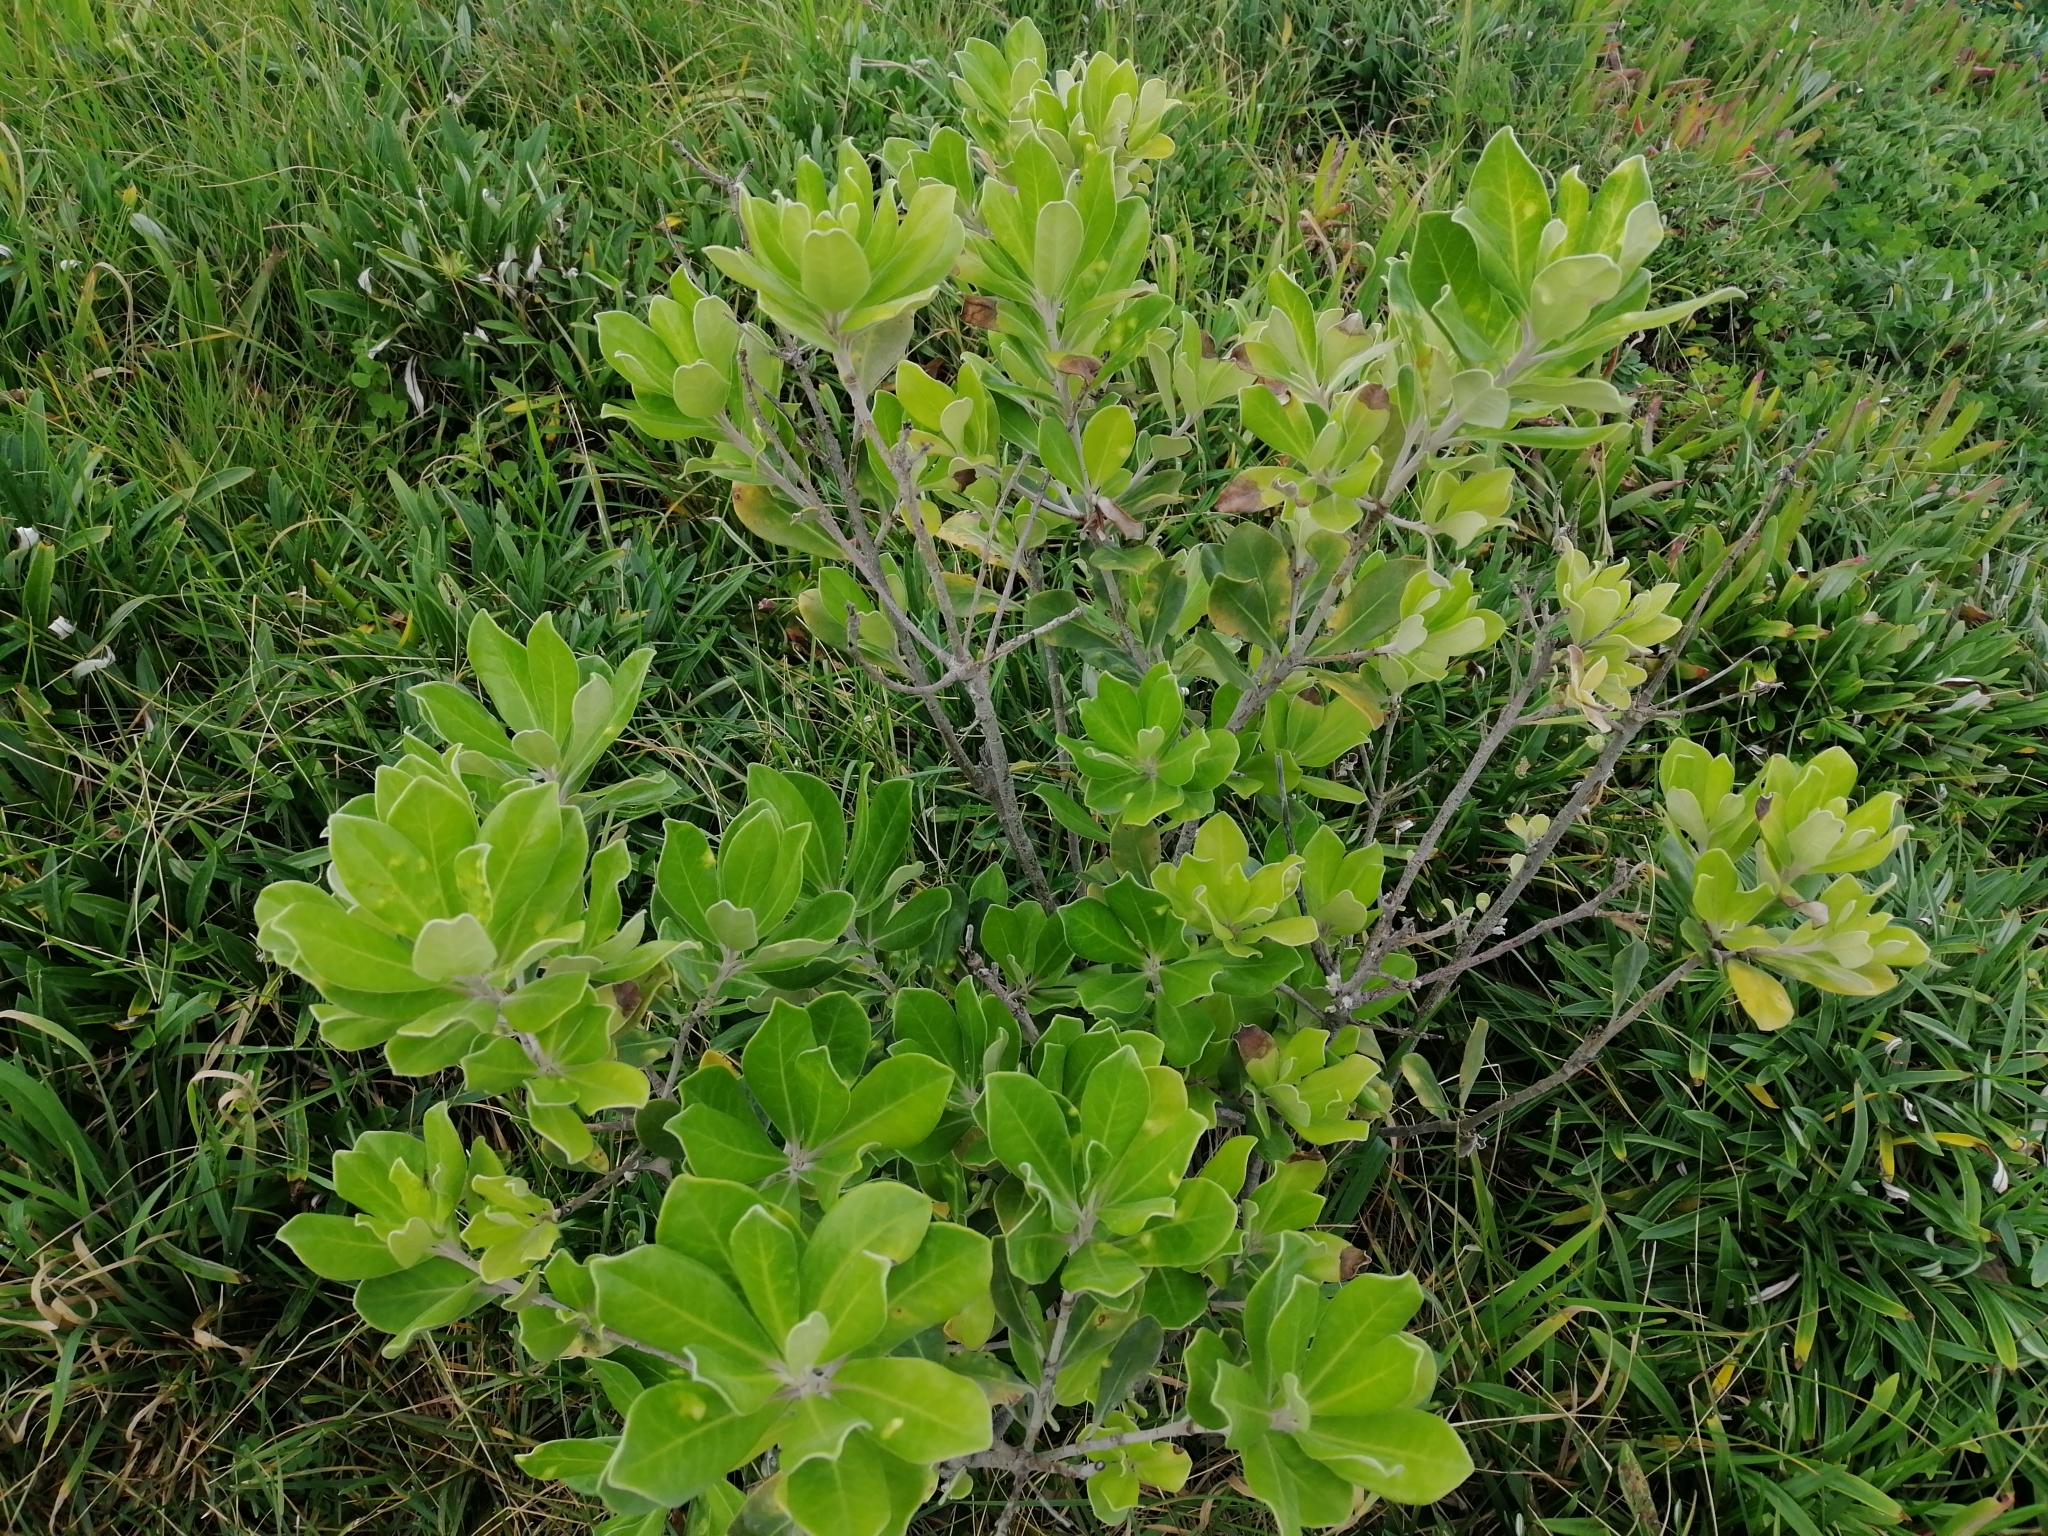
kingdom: Plantae
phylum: Tracheophyta
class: Magnoliopsida
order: Apiales
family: Pittosporaceae
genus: Pittosporum
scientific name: Pittosporum crassifolium
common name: Karo
